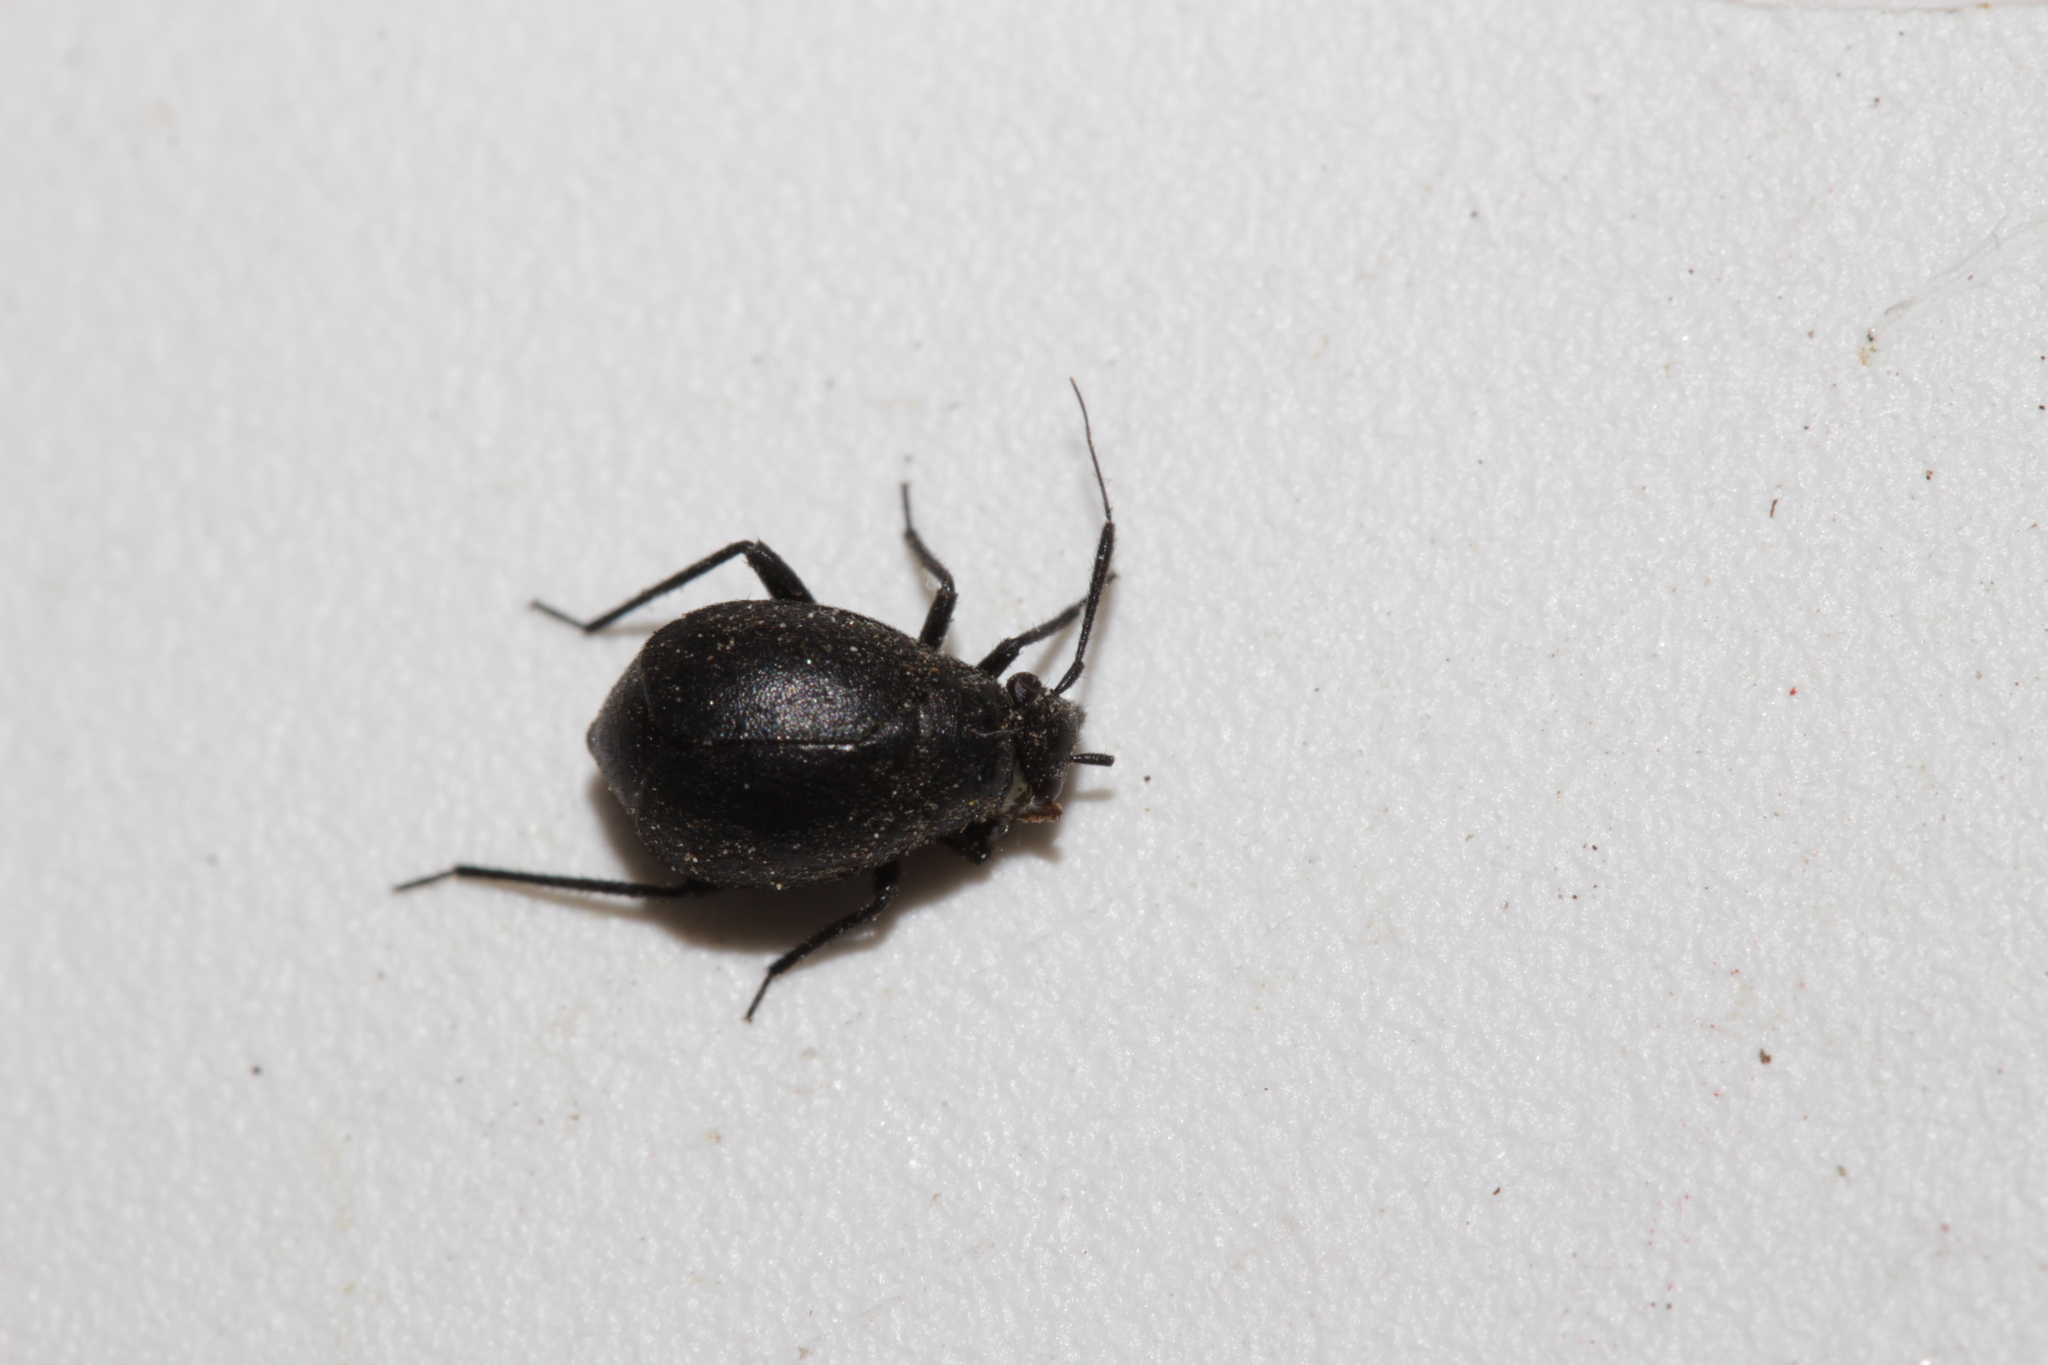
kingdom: Animalia
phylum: Arthropoda
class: Insecta
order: Hemiptera
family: Miridae
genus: Orthocephalus
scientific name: Orthocephalus brevis
